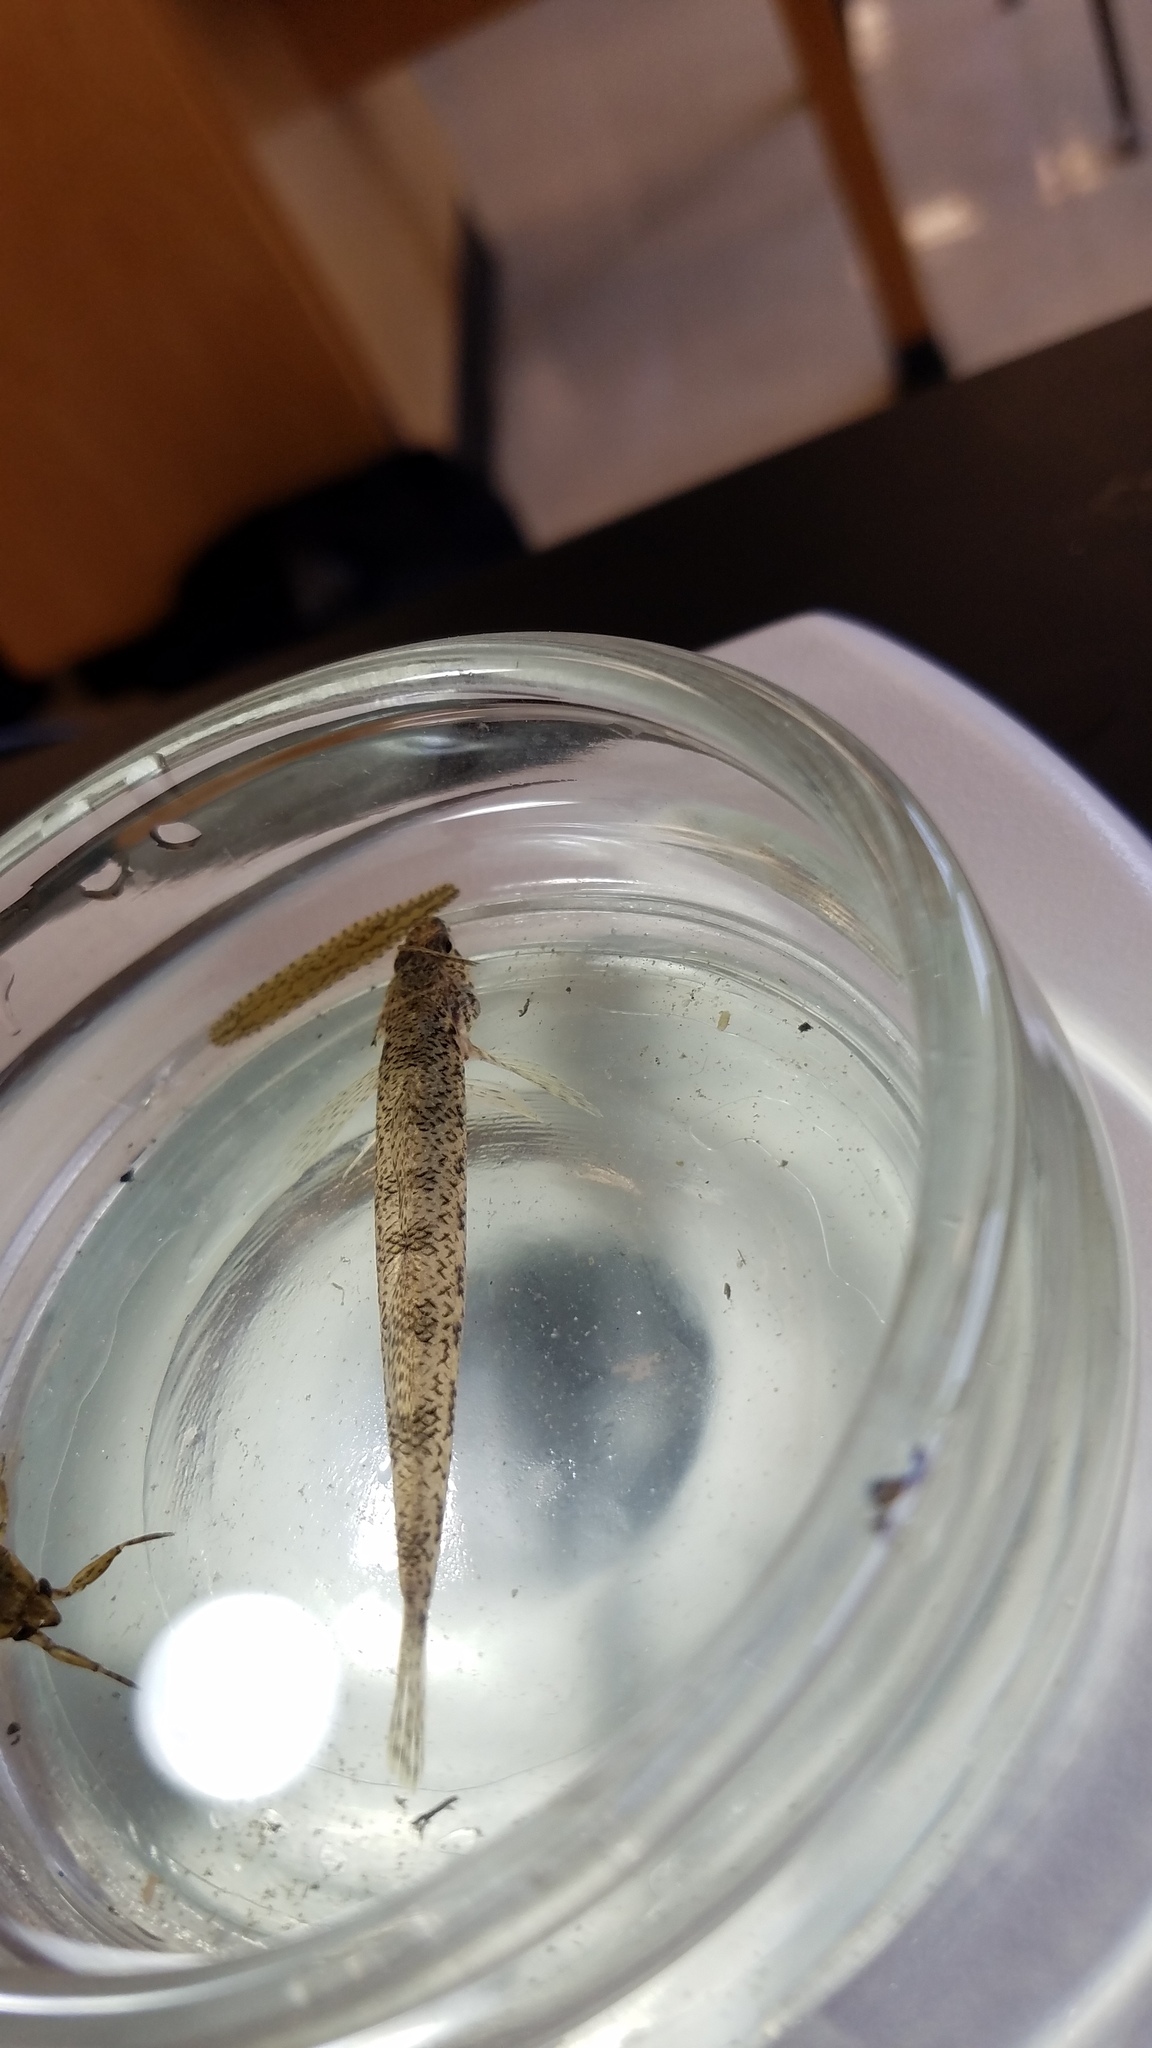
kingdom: Animalia
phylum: Chordata
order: Perciformes
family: Percidae
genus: Etheostoma
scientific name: Etheostoma nigrum
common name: Johnny darter
